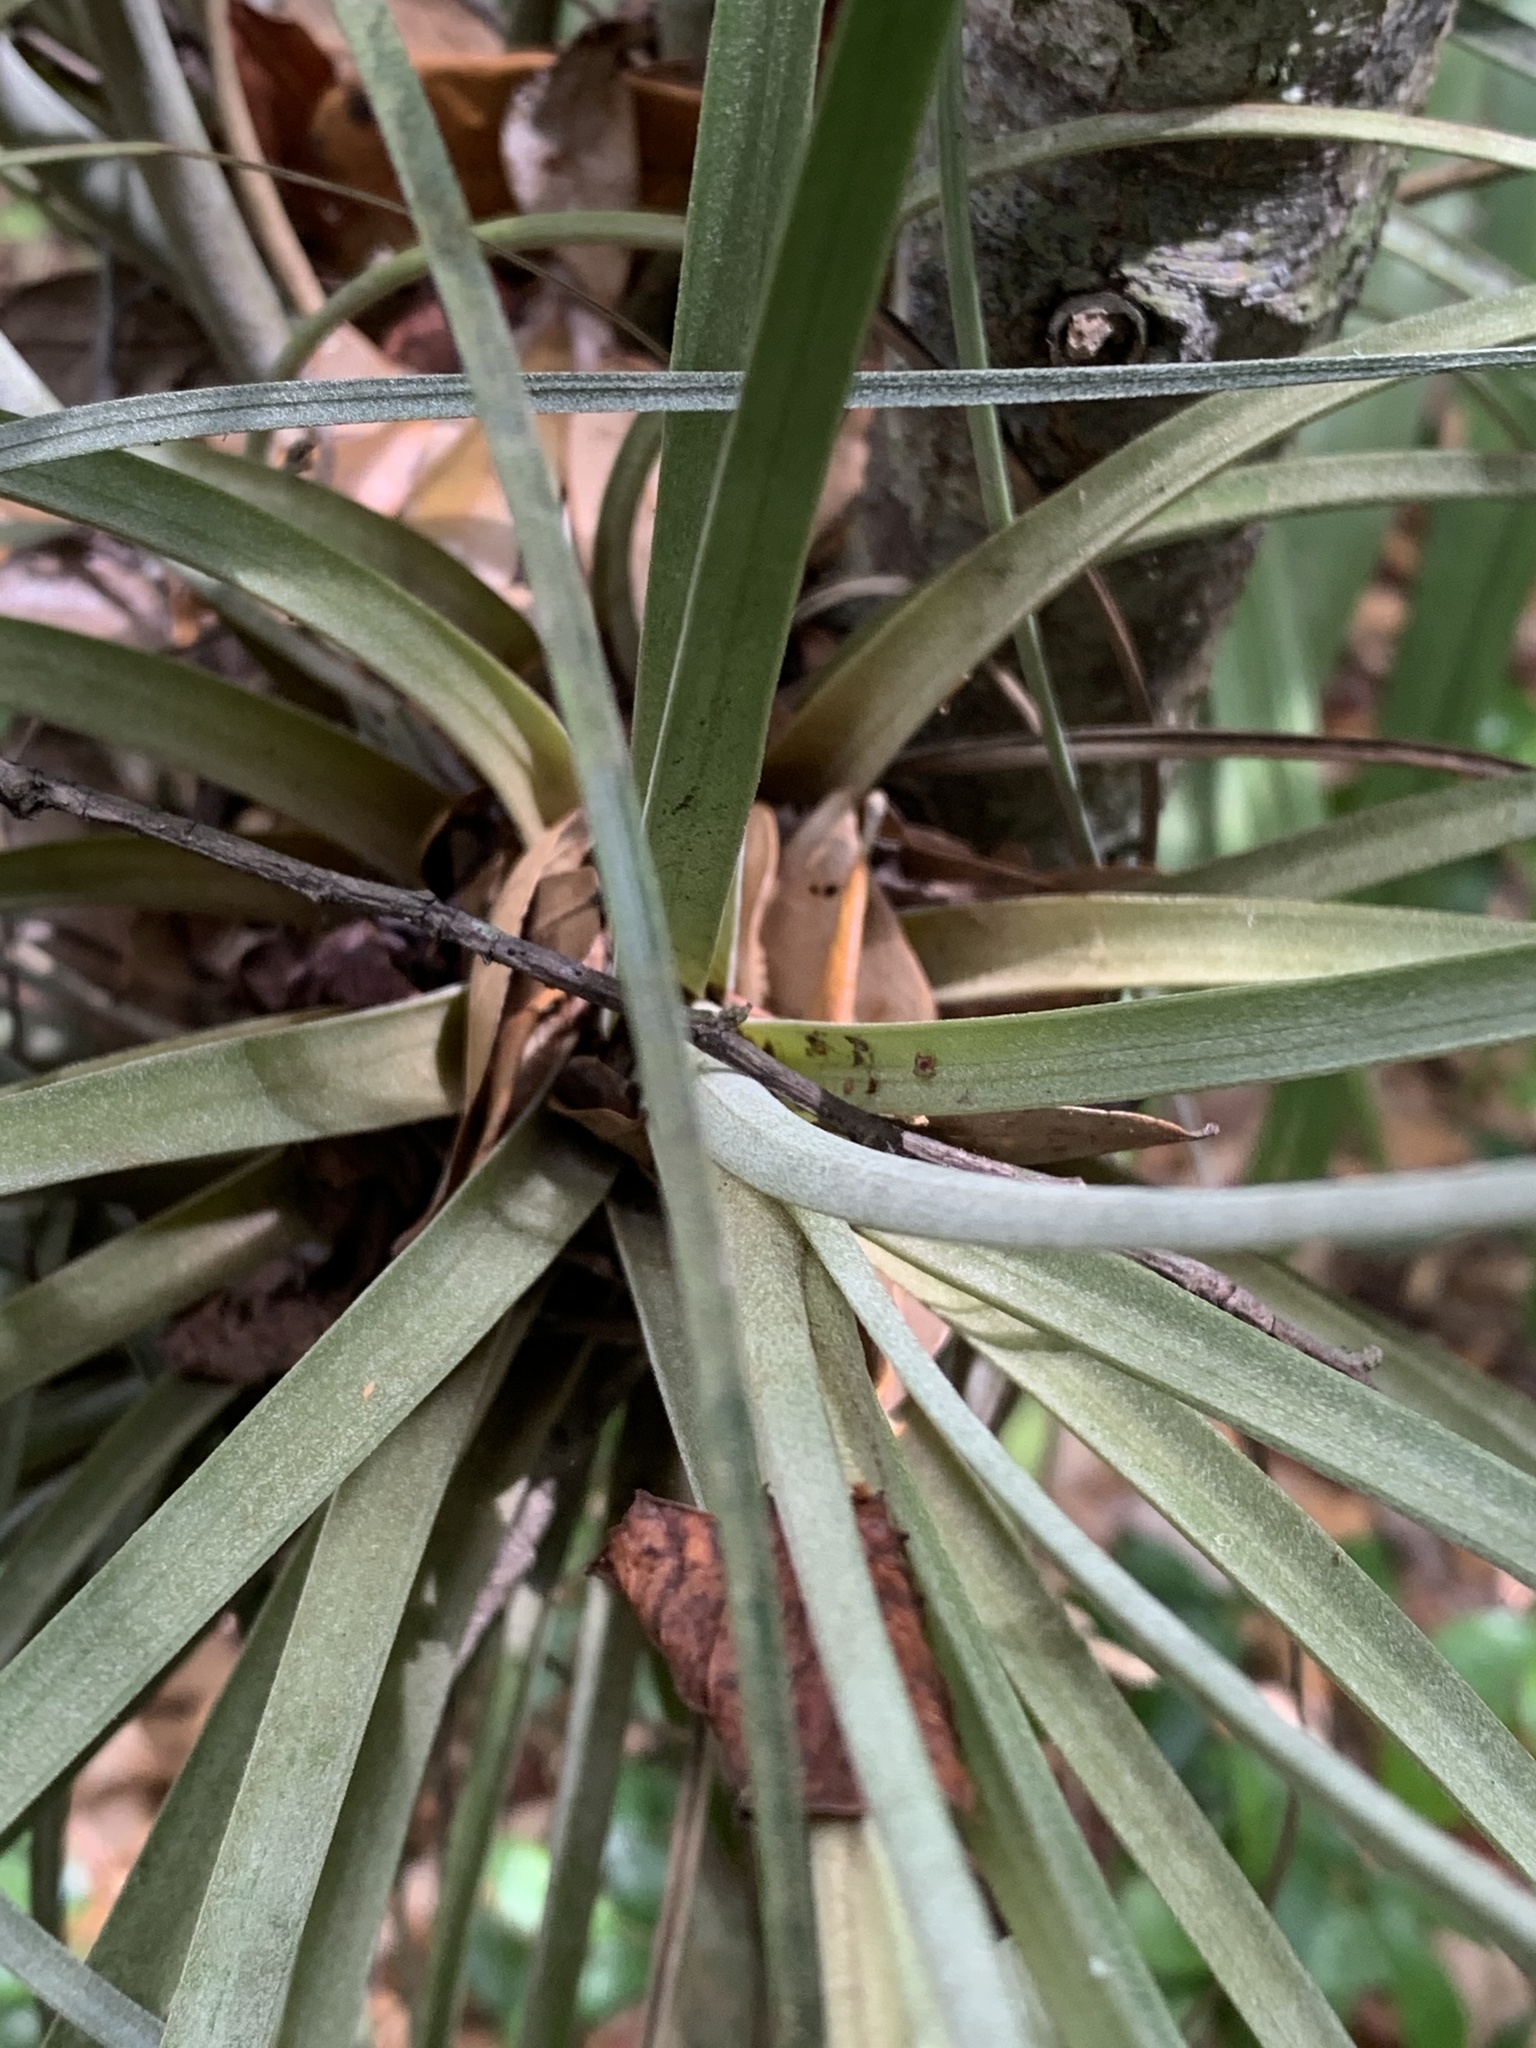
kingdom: Plantae
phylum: Tracheophyta
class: Liliopsida
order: Poales
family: Bromeliaceae
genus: Tillandsia
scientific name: Tillandsia floridana
